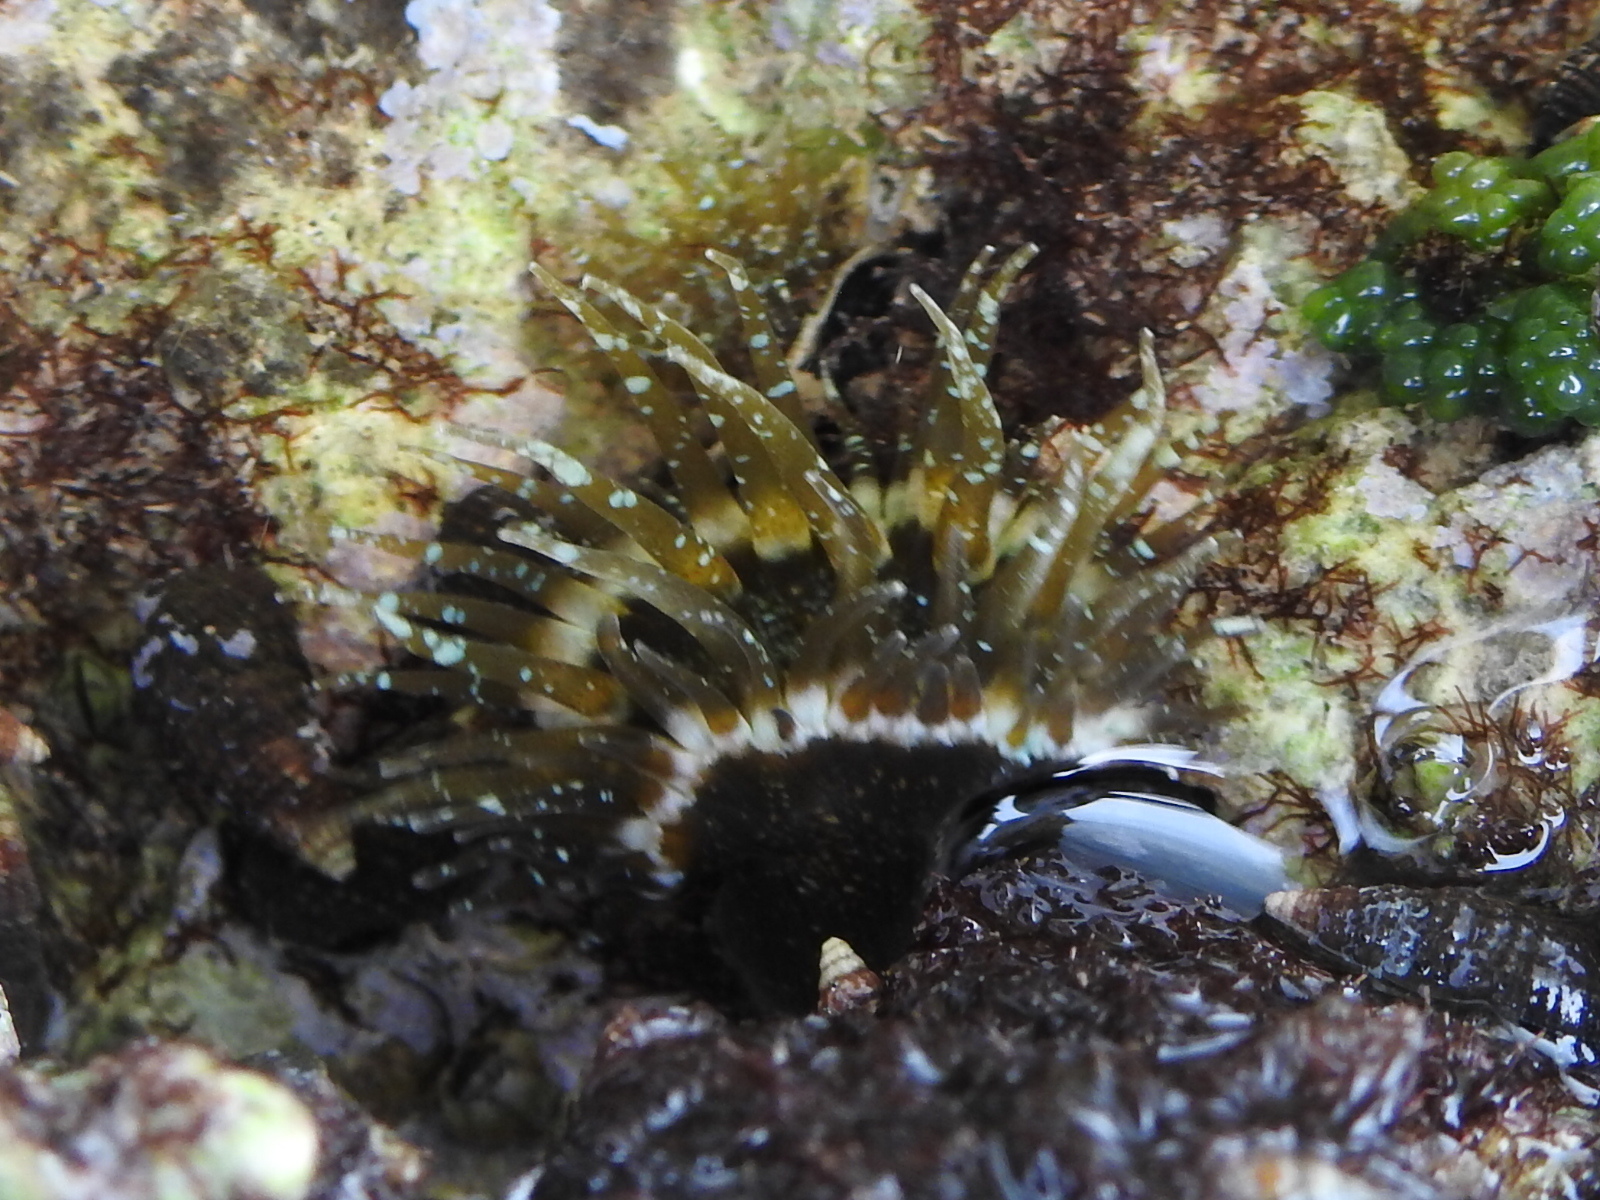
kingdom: Animalia
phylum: Cnidaria
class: Anthozoa
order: Actiniaria
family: Aiptasiidae
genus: Exaiptasia
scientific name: Exaiptasia diaphana
